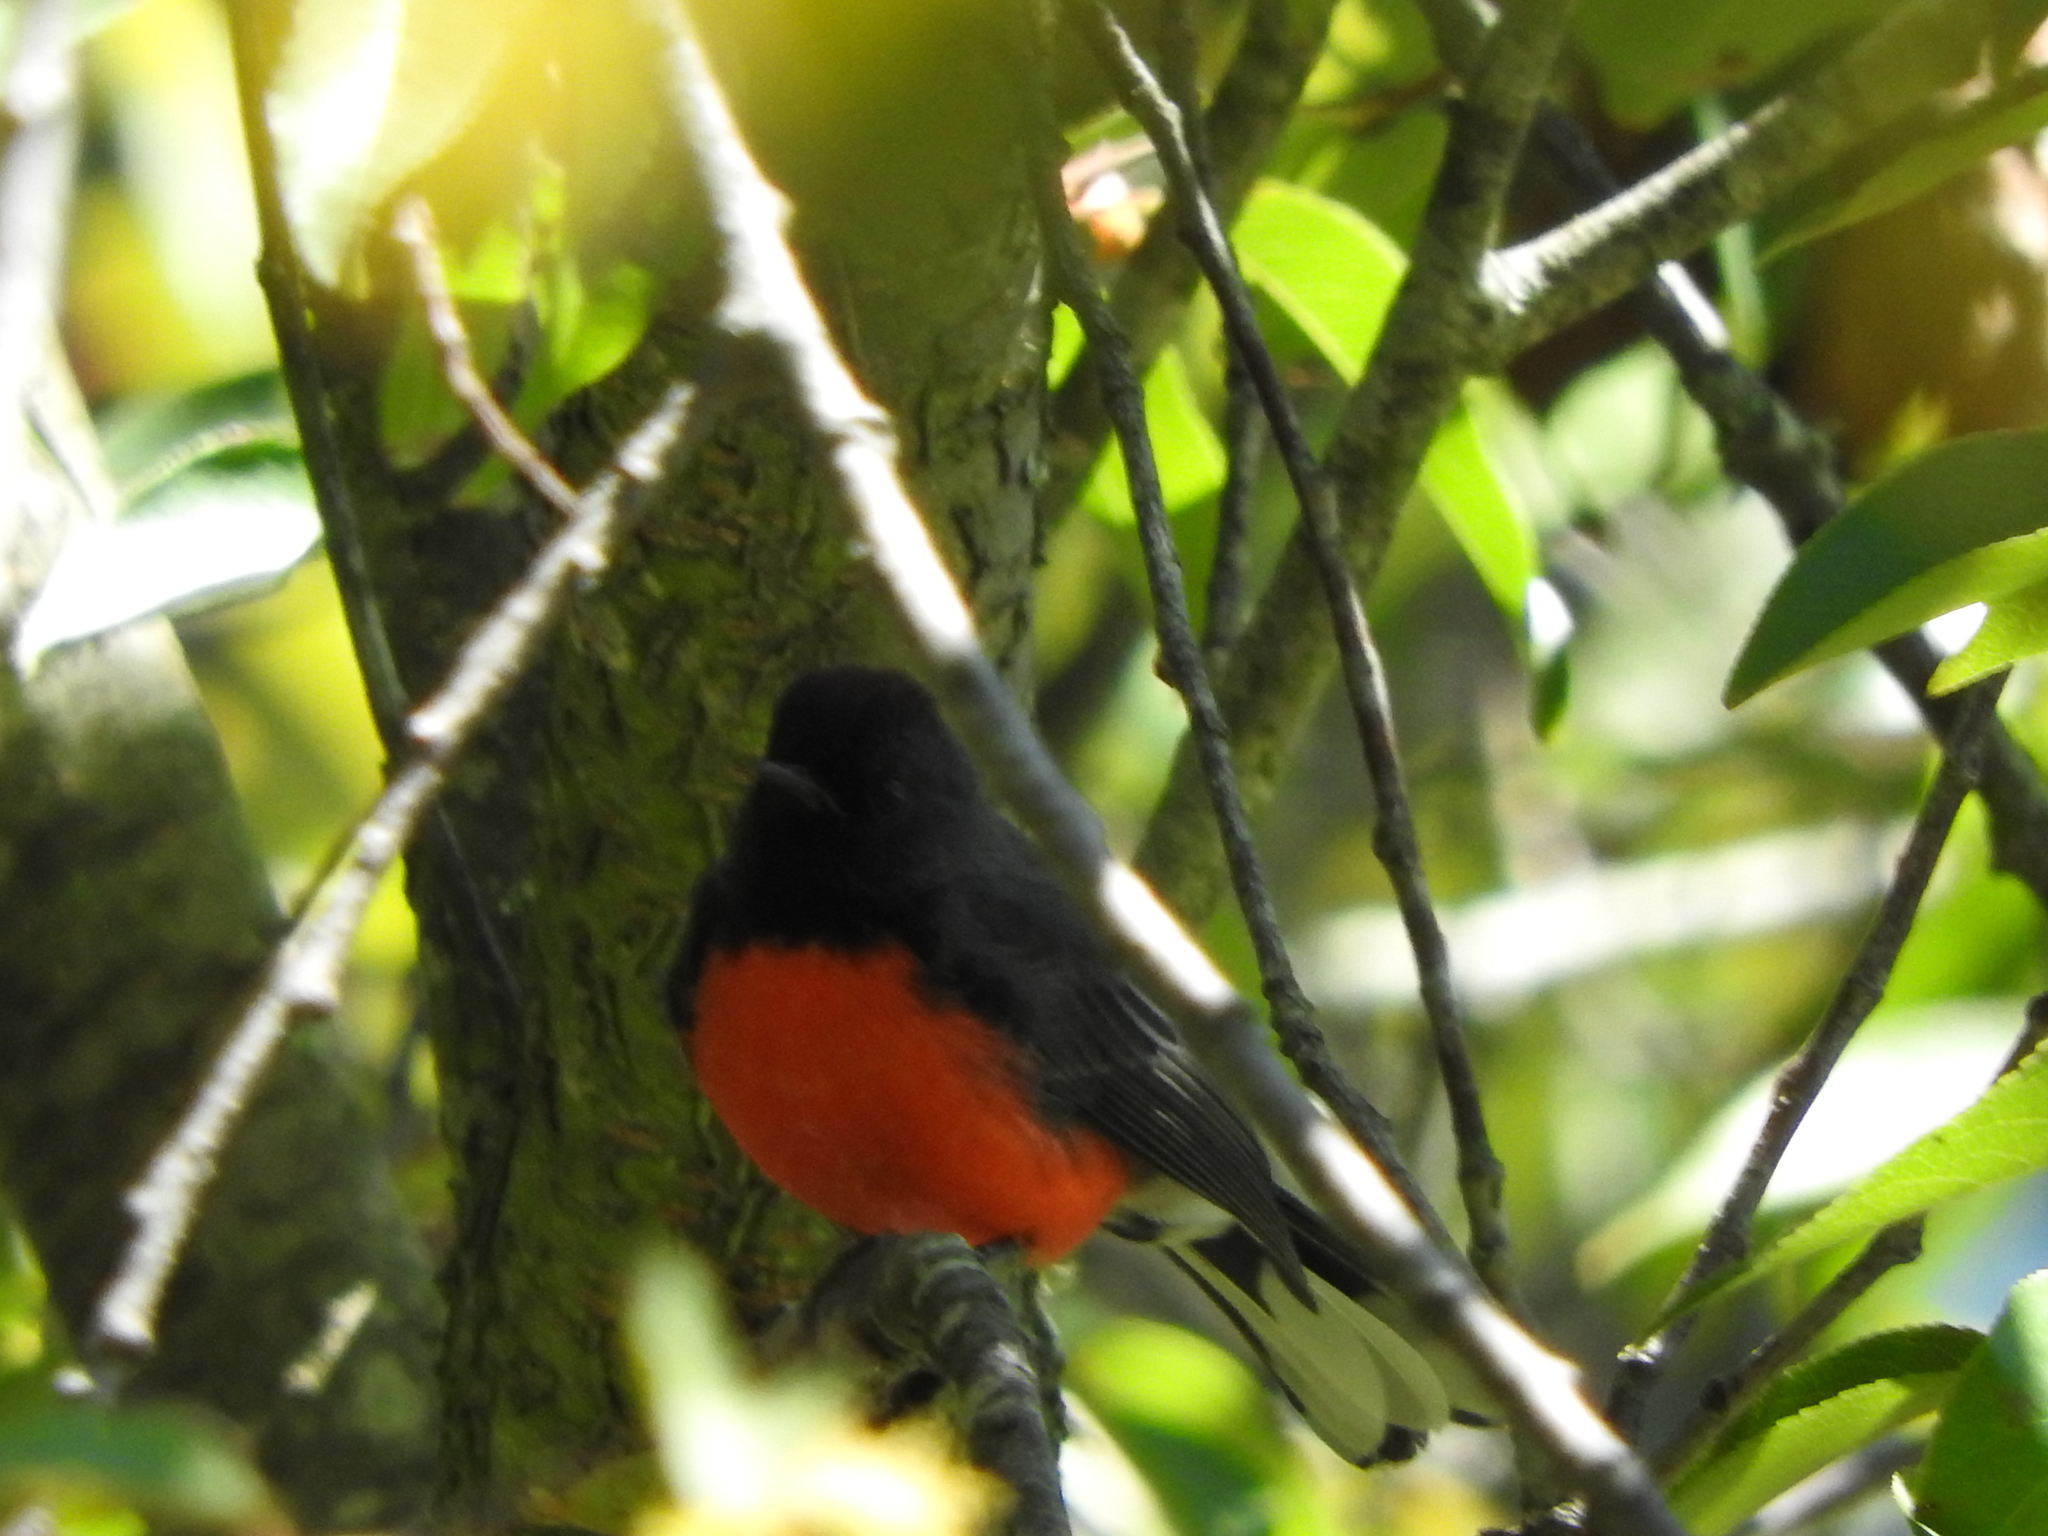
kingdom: Animalia
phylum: Chordata
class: Aves
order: Passeriformes
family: Parulidae
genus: Myioborus
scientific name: Myioborus miniatus
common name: Slate-throated redstart
